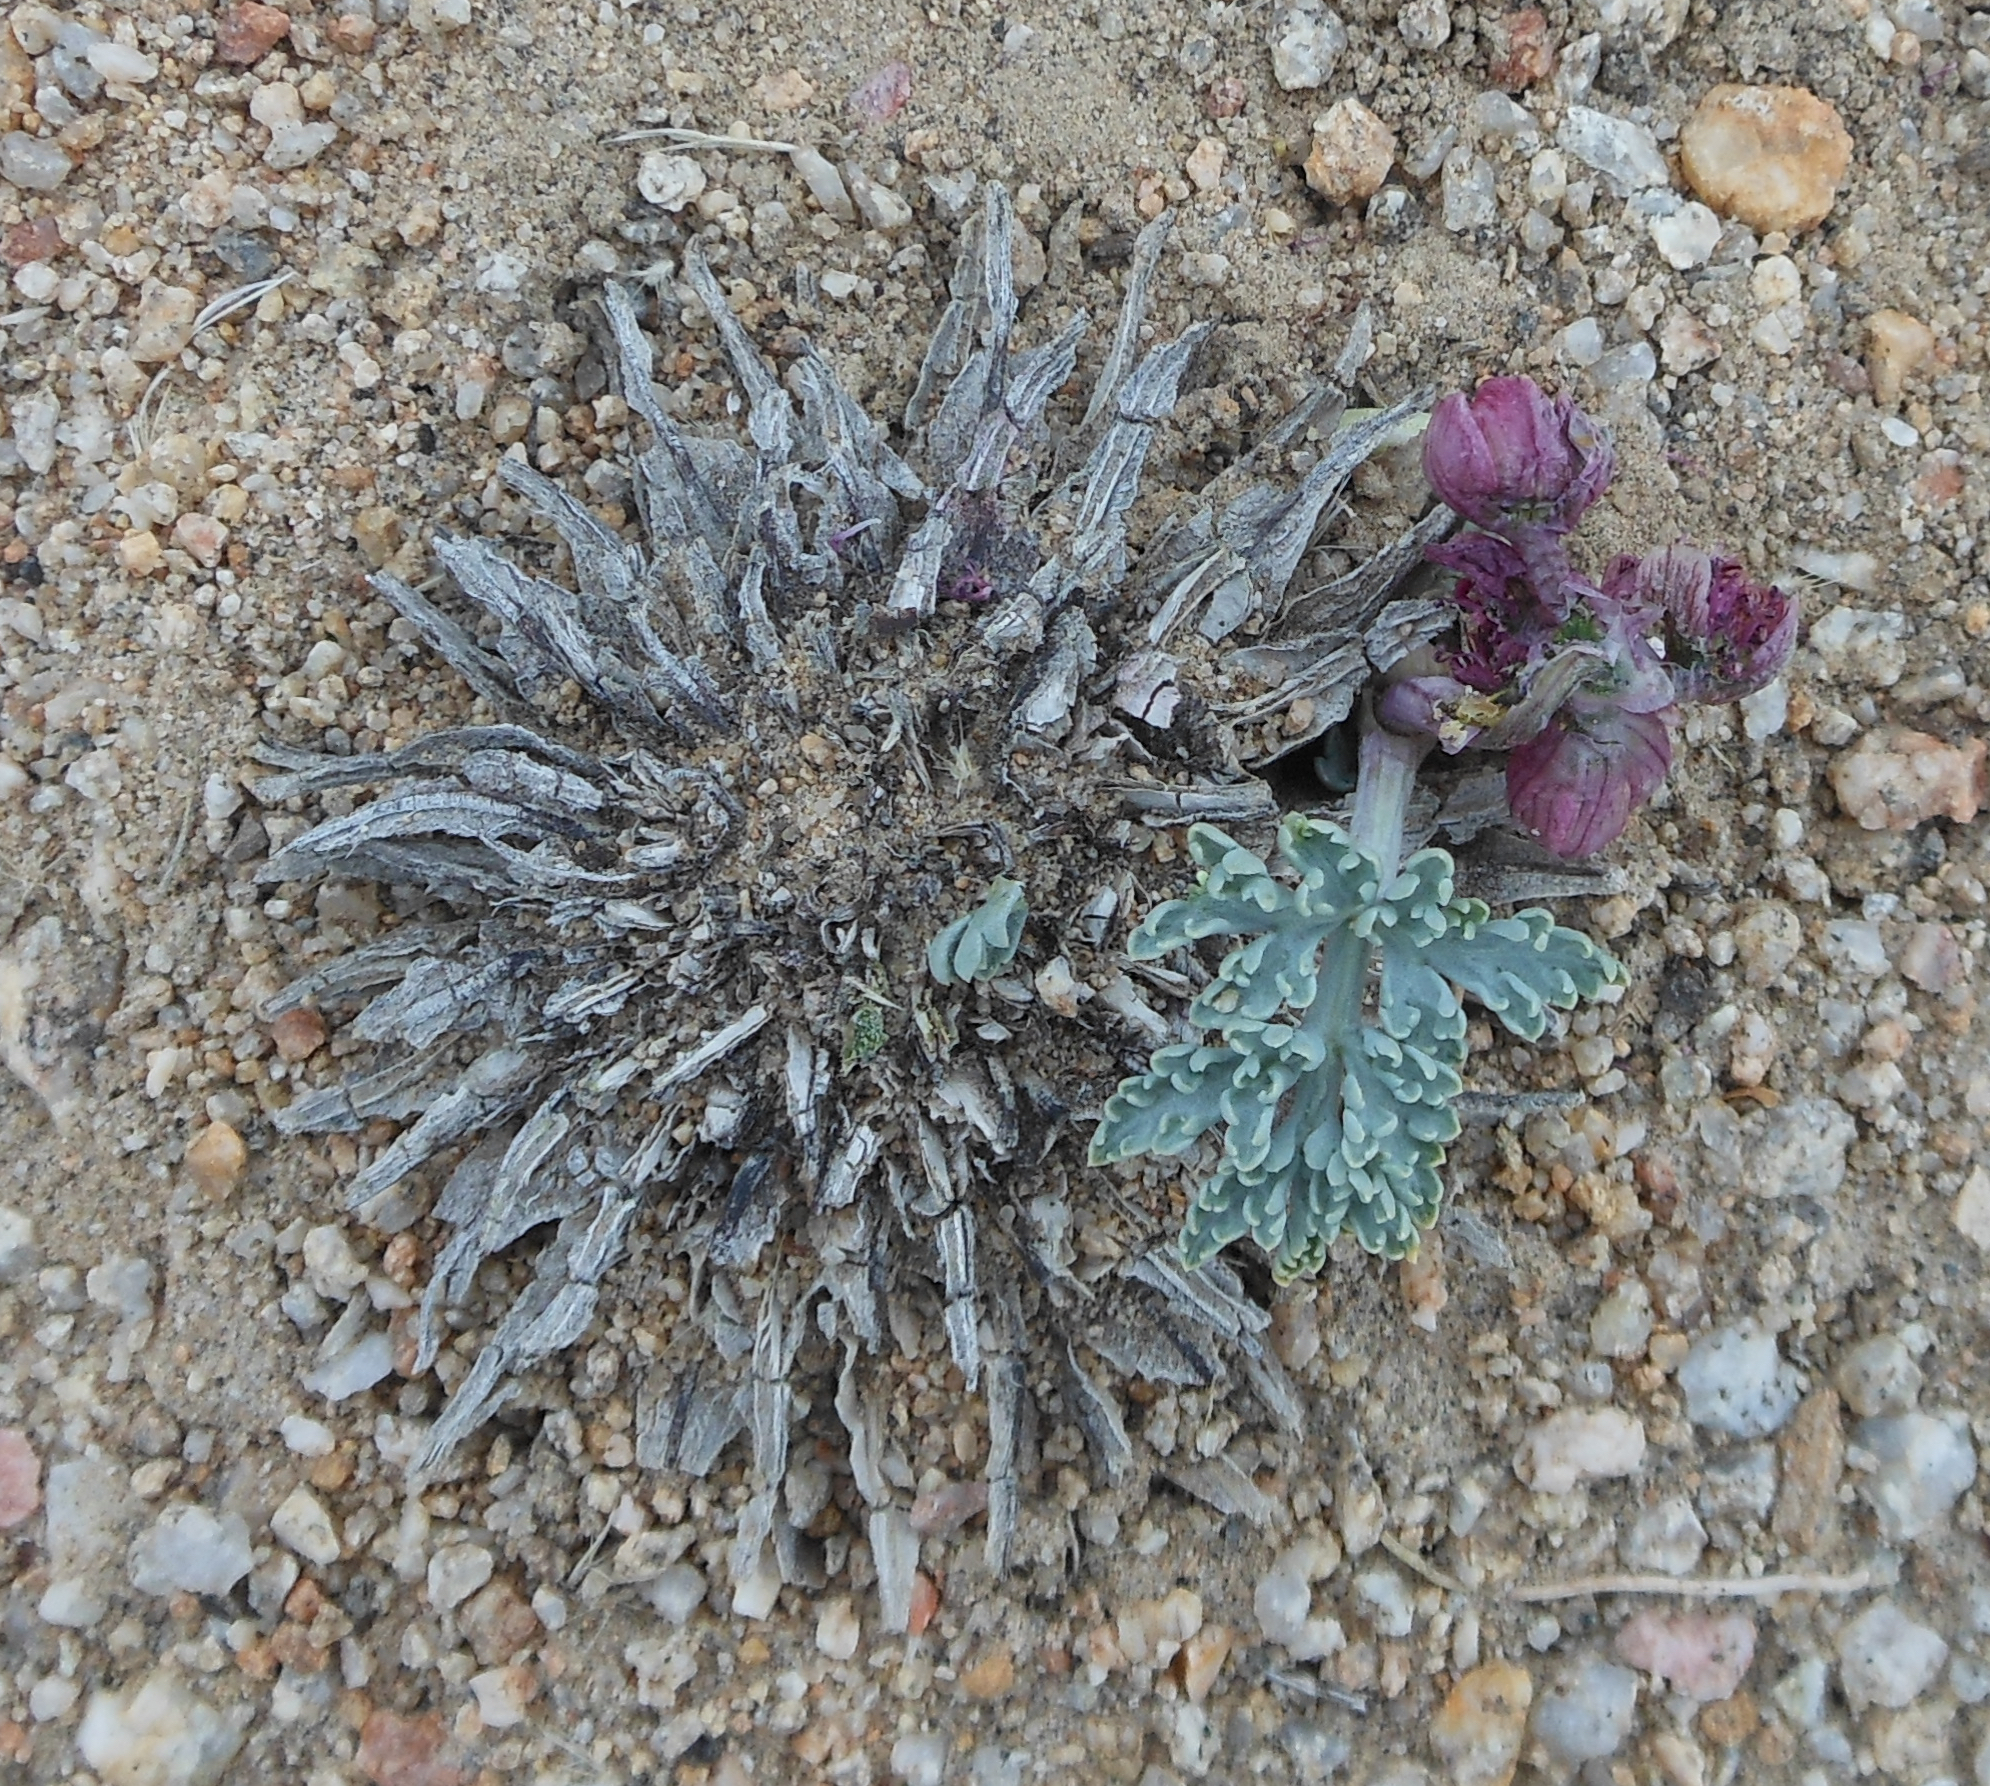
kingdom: Plantae
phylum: Tracheophyta
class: Magnoliopsida
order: Apiales
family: Apiaceae
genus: Vesper
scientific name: Vesper multinervatus
